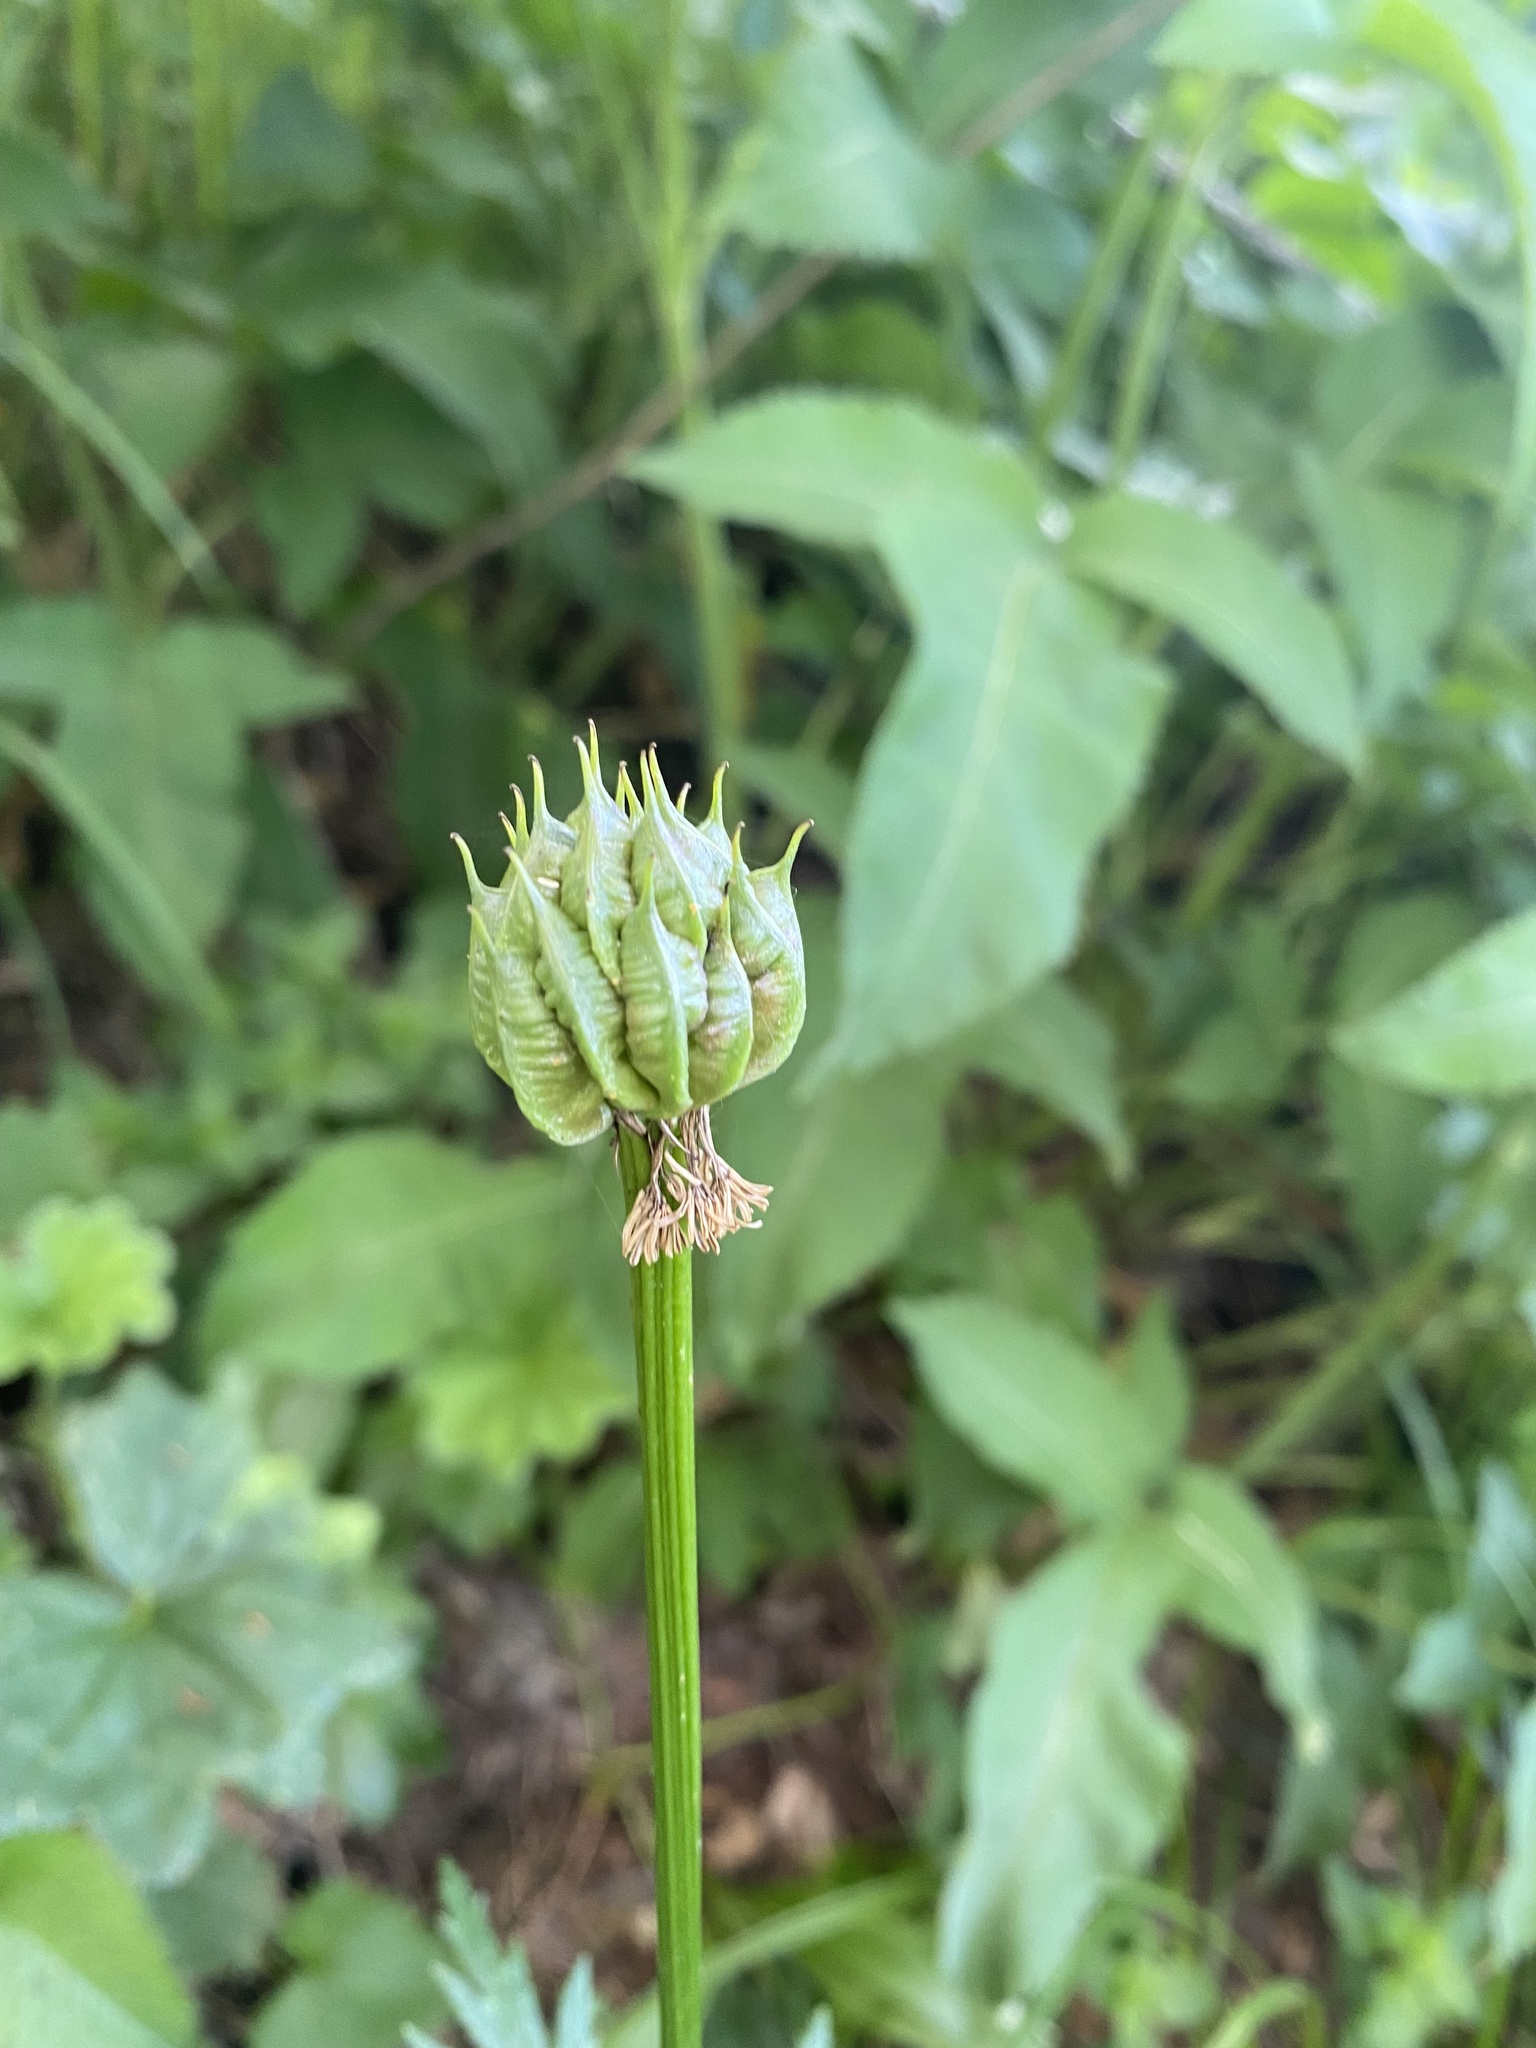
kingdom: Plantae
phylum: Tracheophyta
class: Magnoliopsida
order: Ranunculales
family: Ranunculaceae
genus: Trollius
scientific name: Trollius ranunculinus
